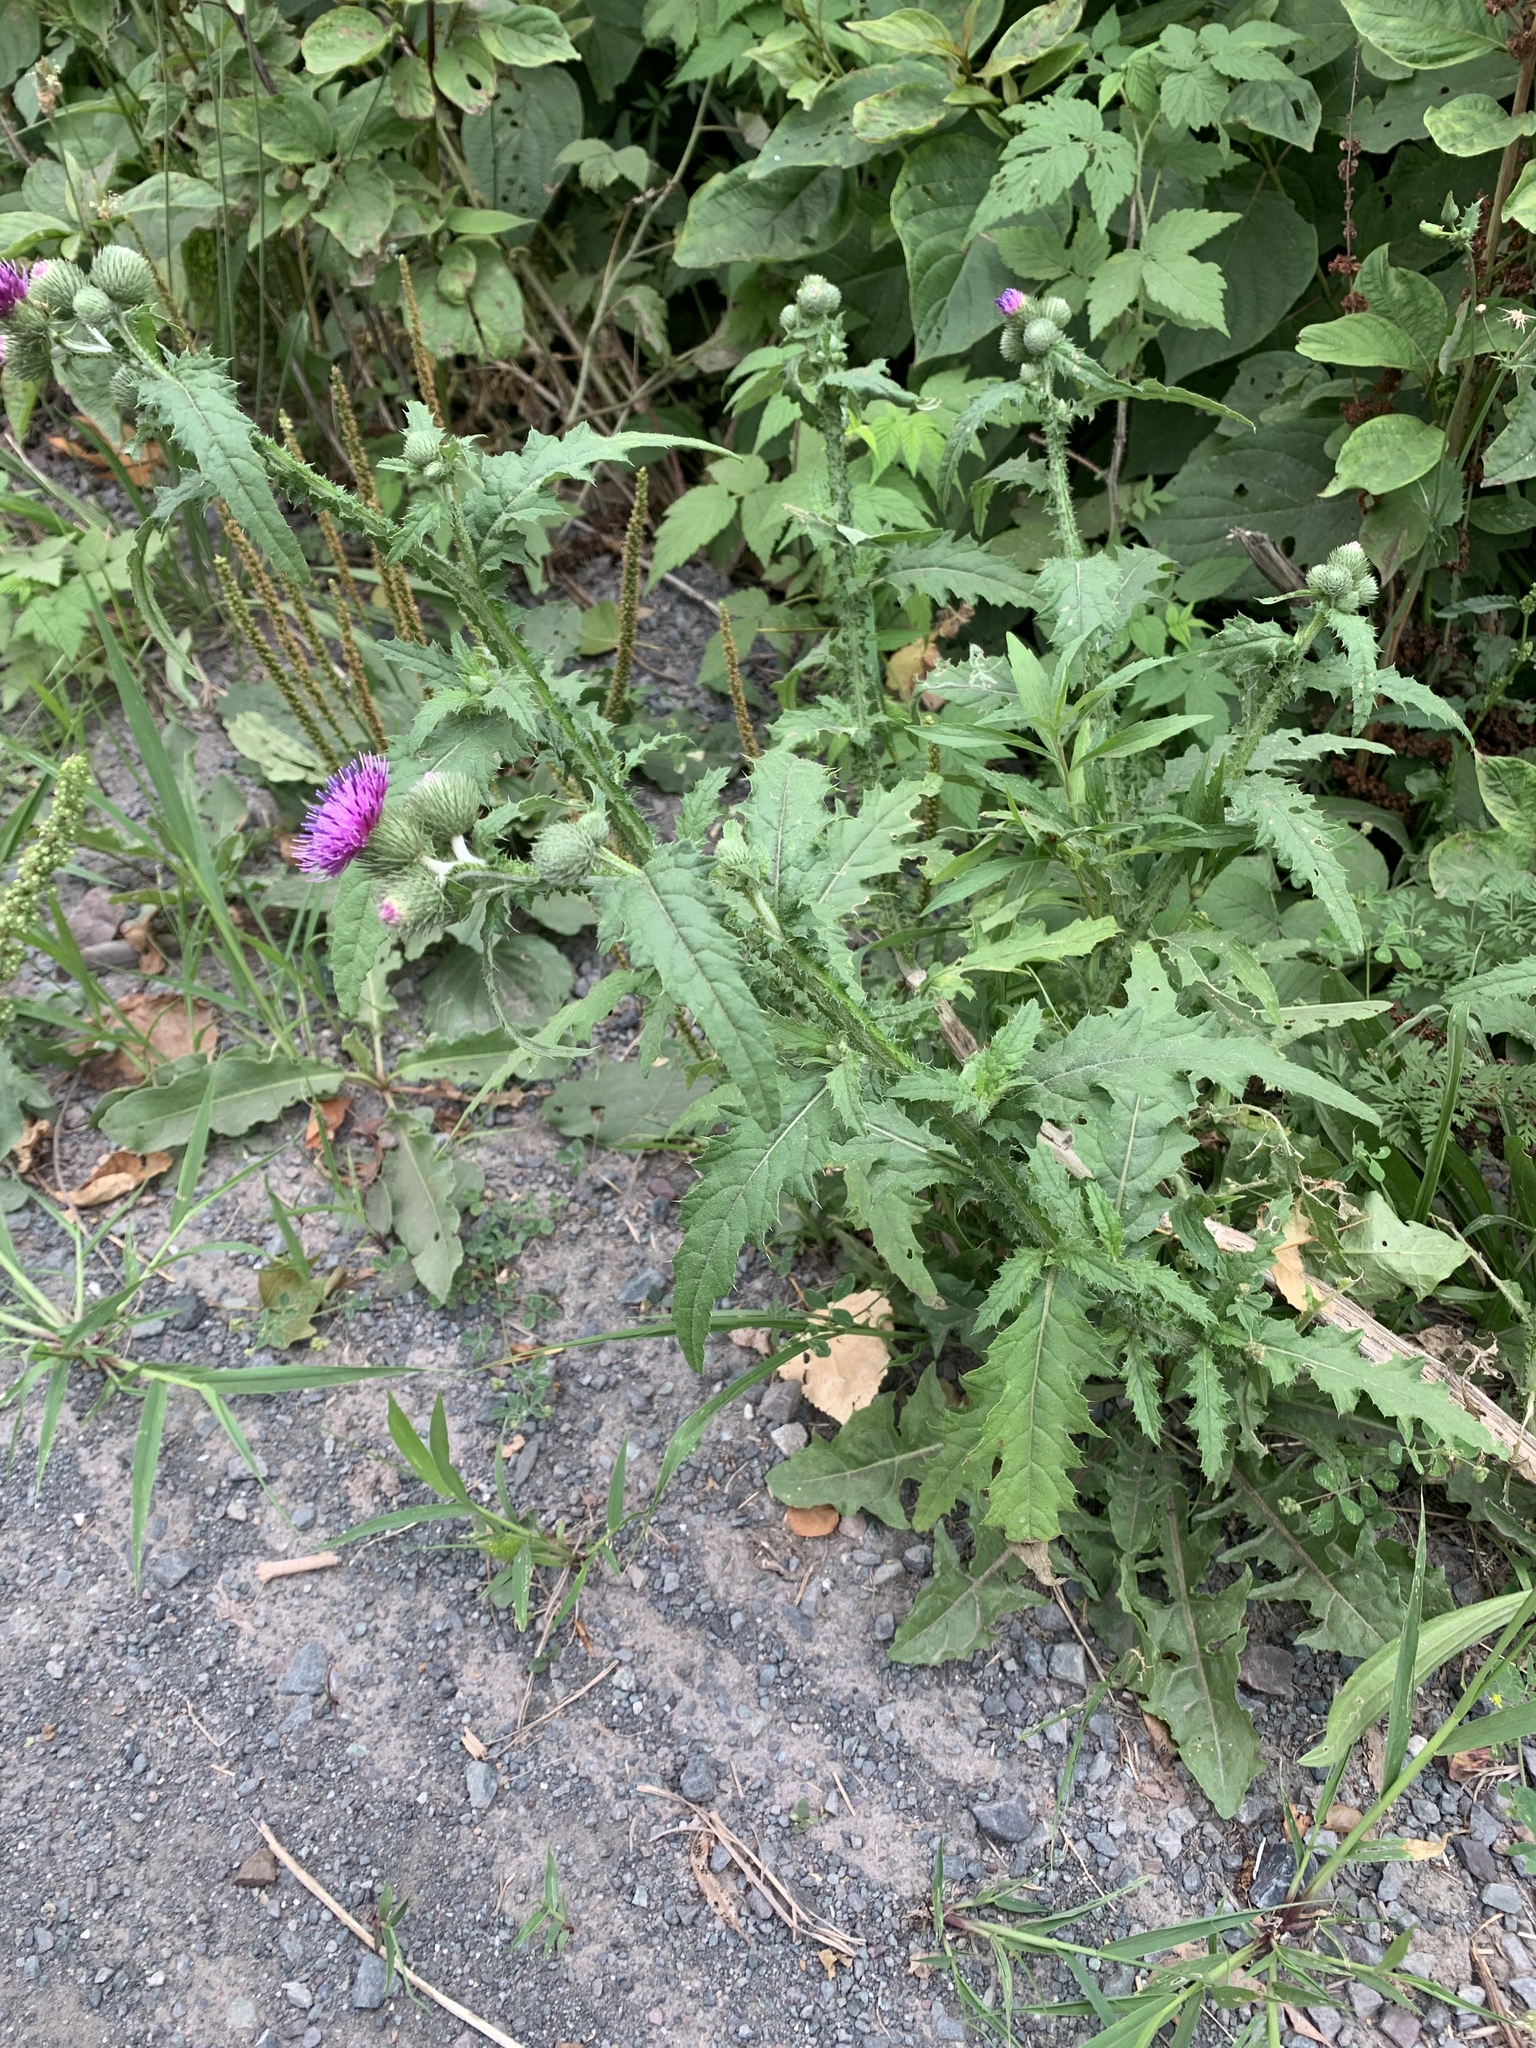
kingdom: Plantae
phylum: Tracheophyta
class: Magnoliopsida
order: Asterales
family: Asteraceae
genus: Carduus
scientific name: Carduus crispus
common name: Welted thistle
